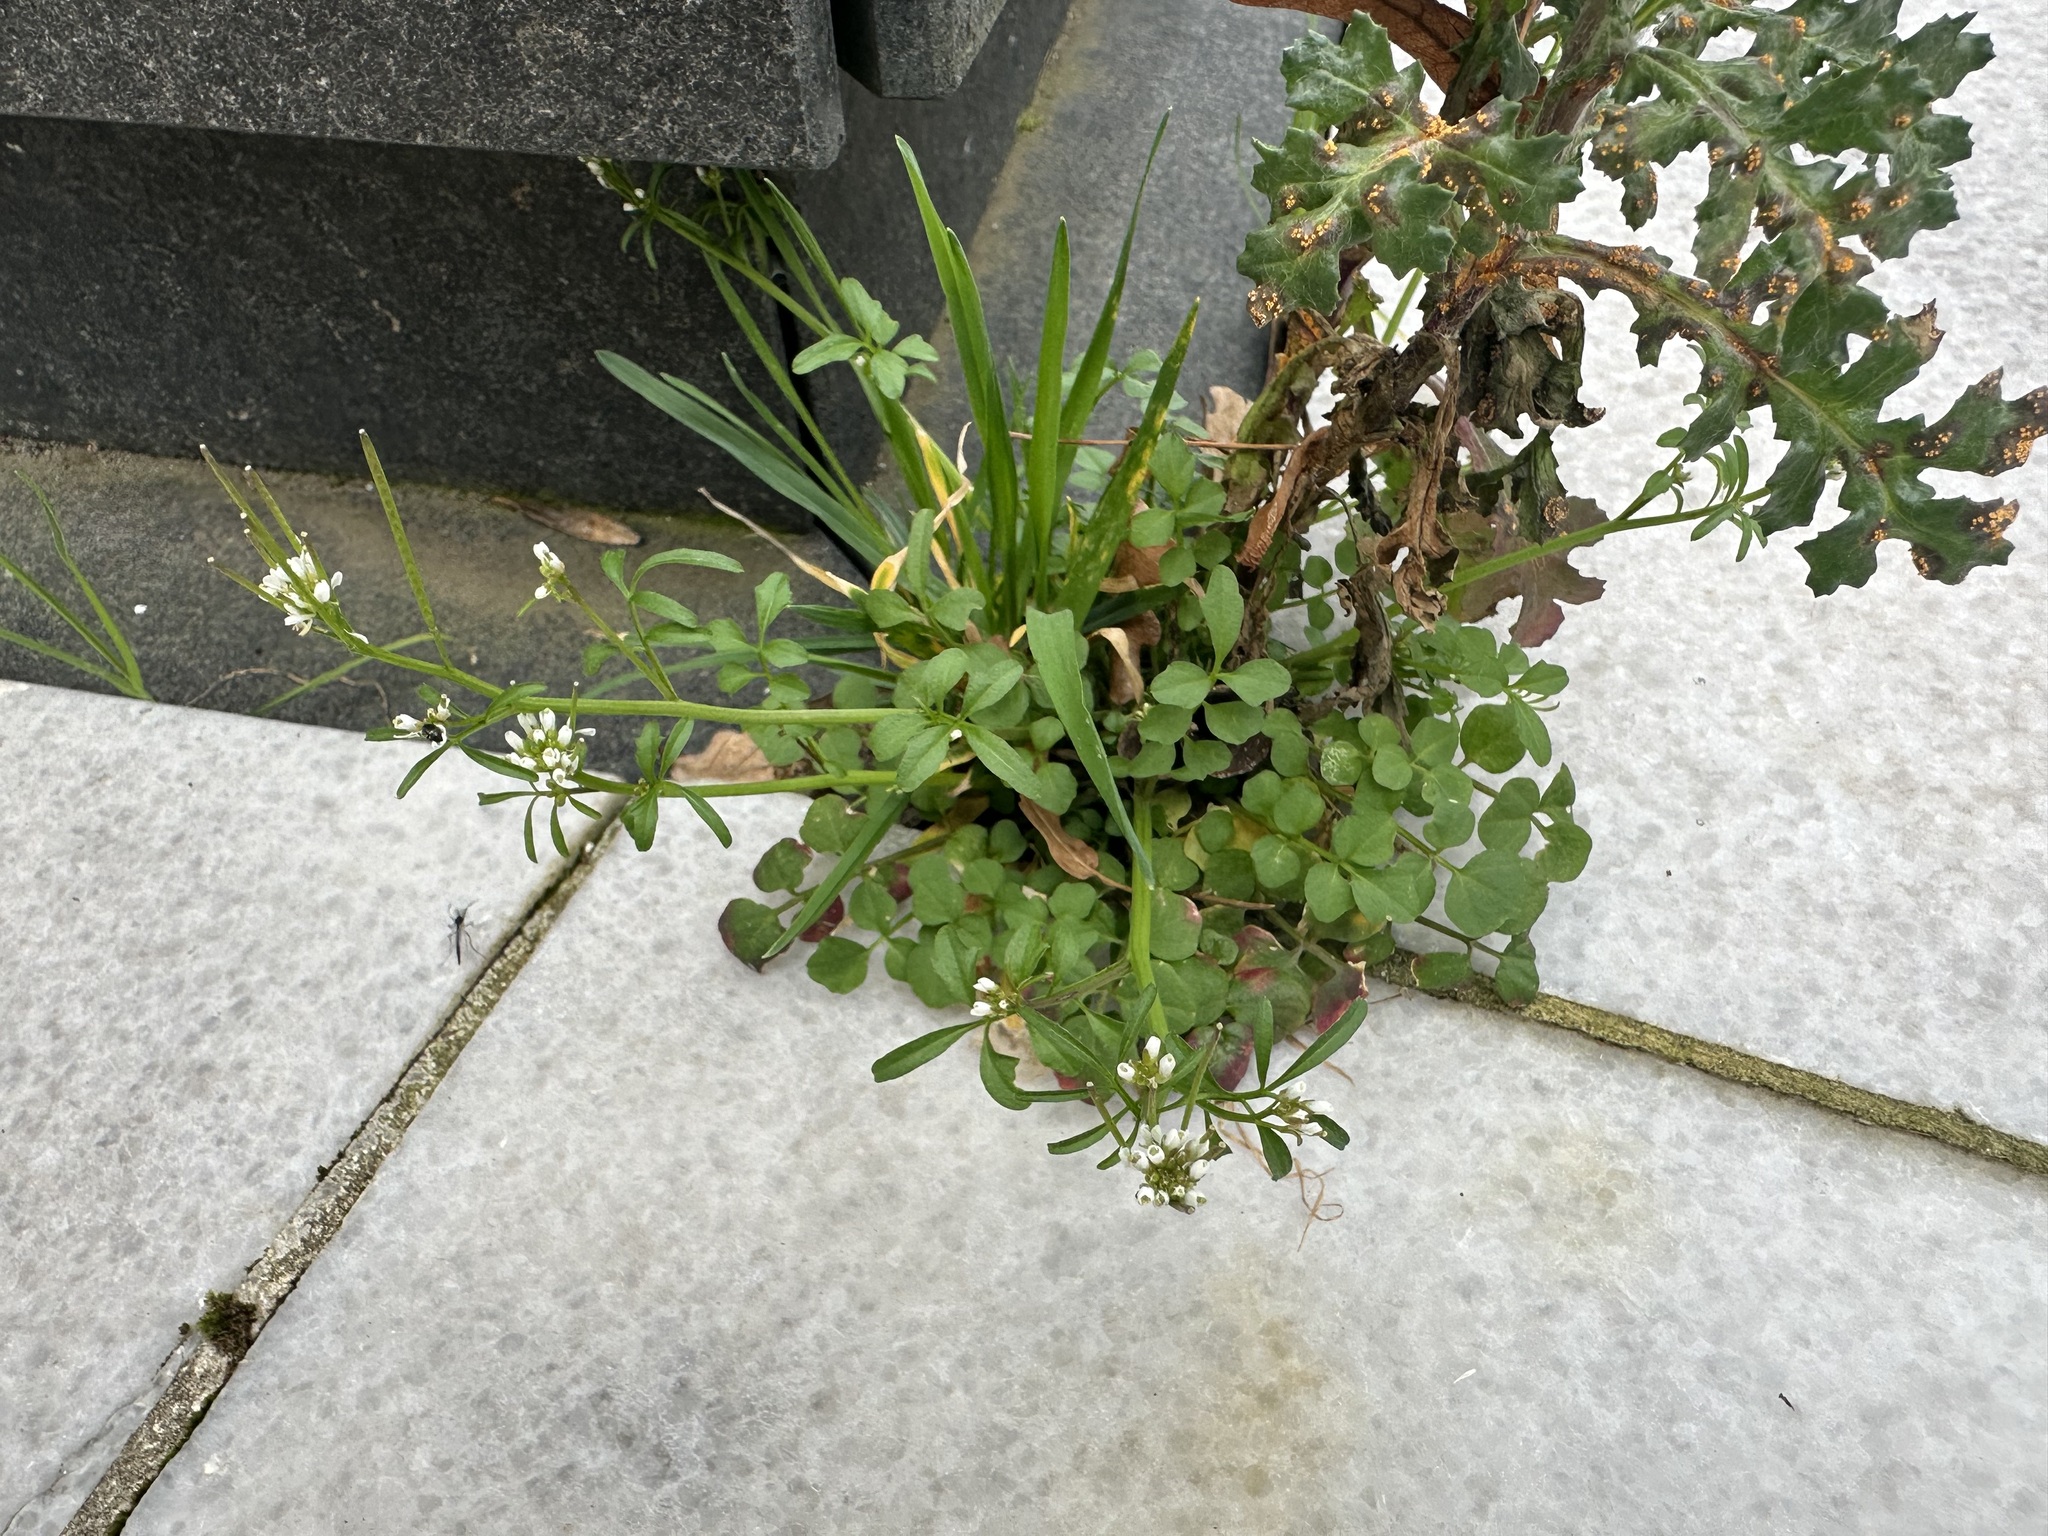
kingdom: Plantae
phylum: Tracheophyta
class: Magnoliopsida
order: Brassicales
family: Brassicaceae
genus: Cardamine
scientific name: Cardamine hirsuta
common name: Hairy bittercress
